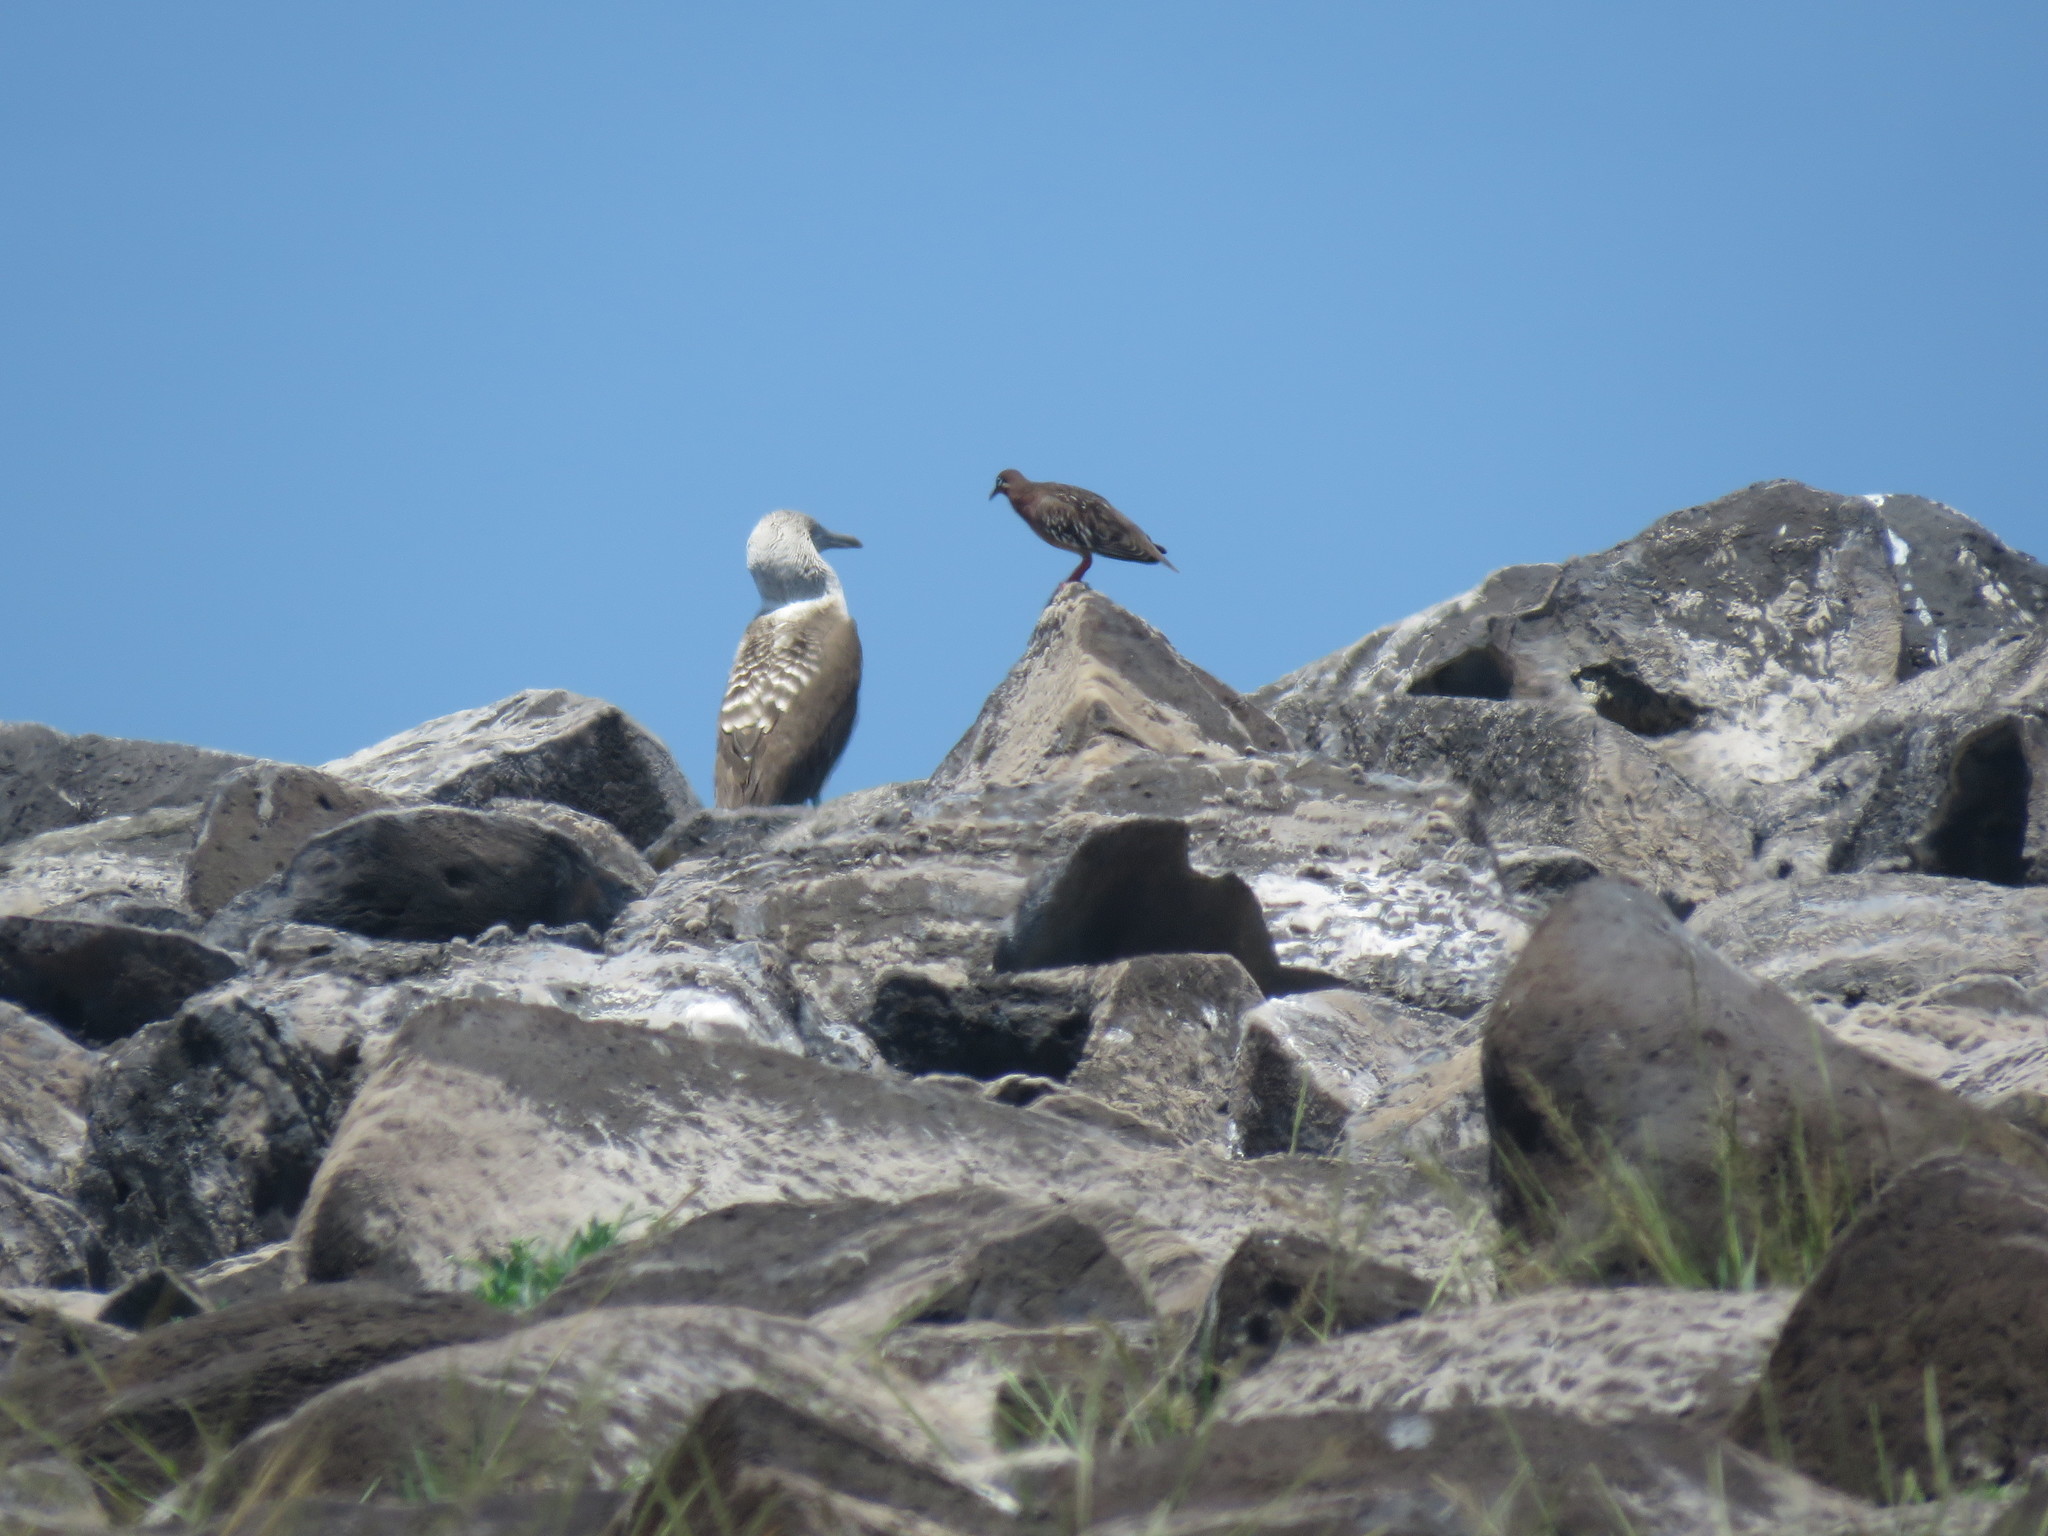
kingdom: Animalia
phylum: Chordata
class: Aves
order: Columbiformes
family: Columbidae
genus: Zenaida
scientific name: Zenaida galapagoensis
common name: Galapagos dove
